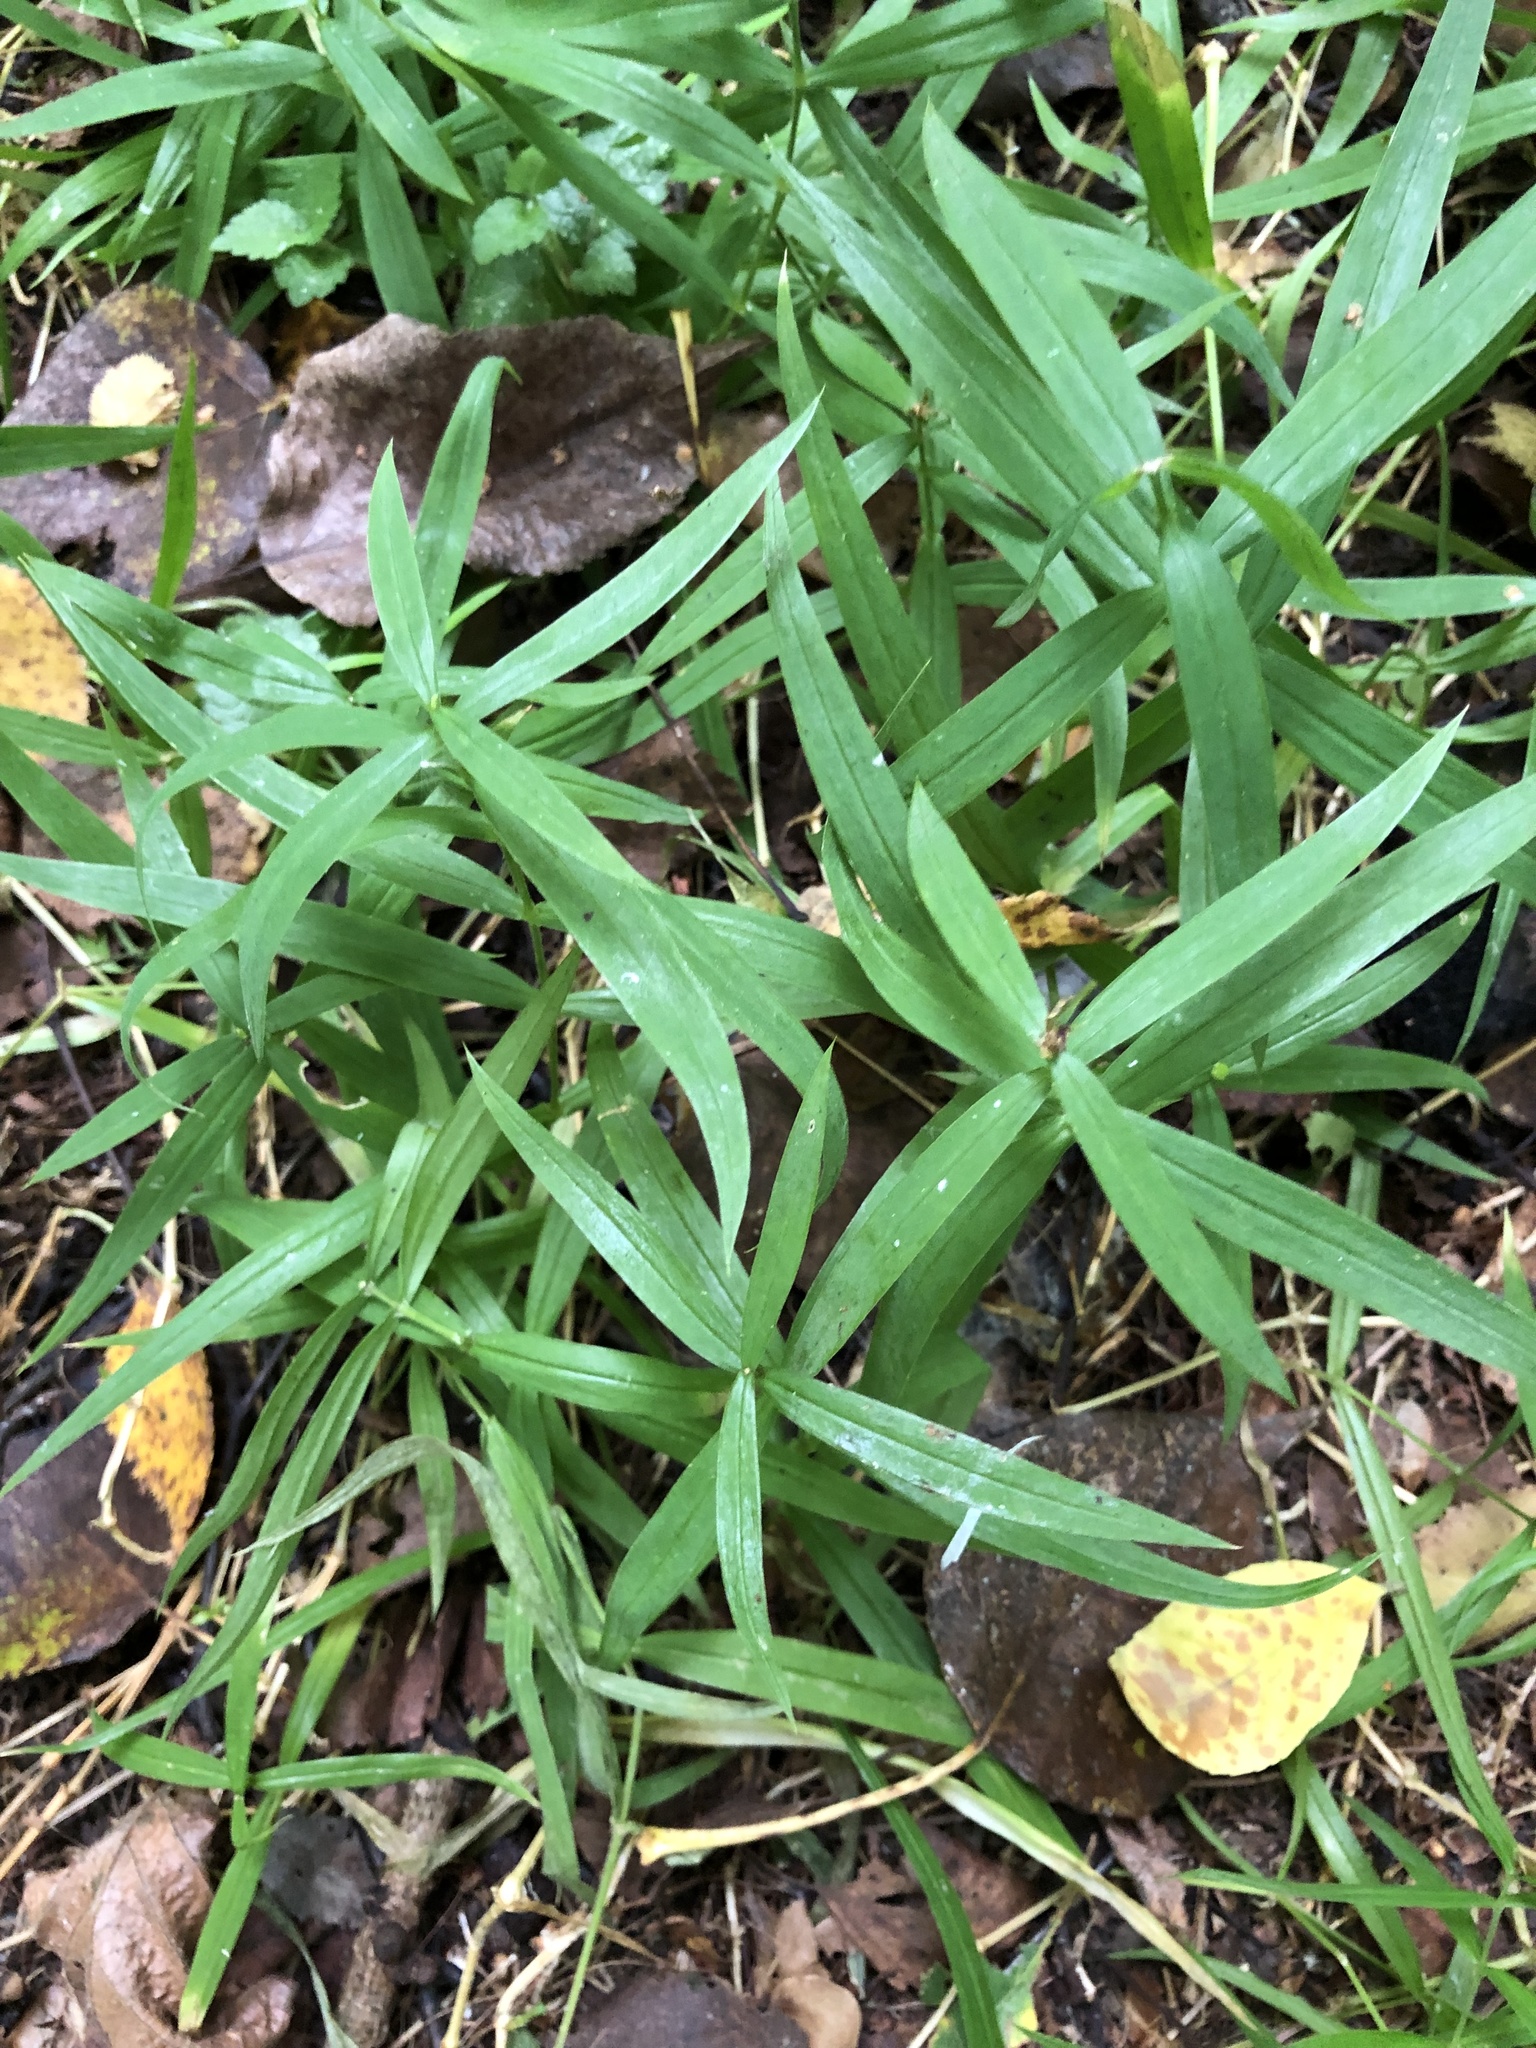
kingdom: Plantae
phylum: Tracheophyta
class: Magnoliopsida
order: Caryophyllales
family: Caryophyllaceae
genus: Rabelera
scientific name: Rabelera holostea
